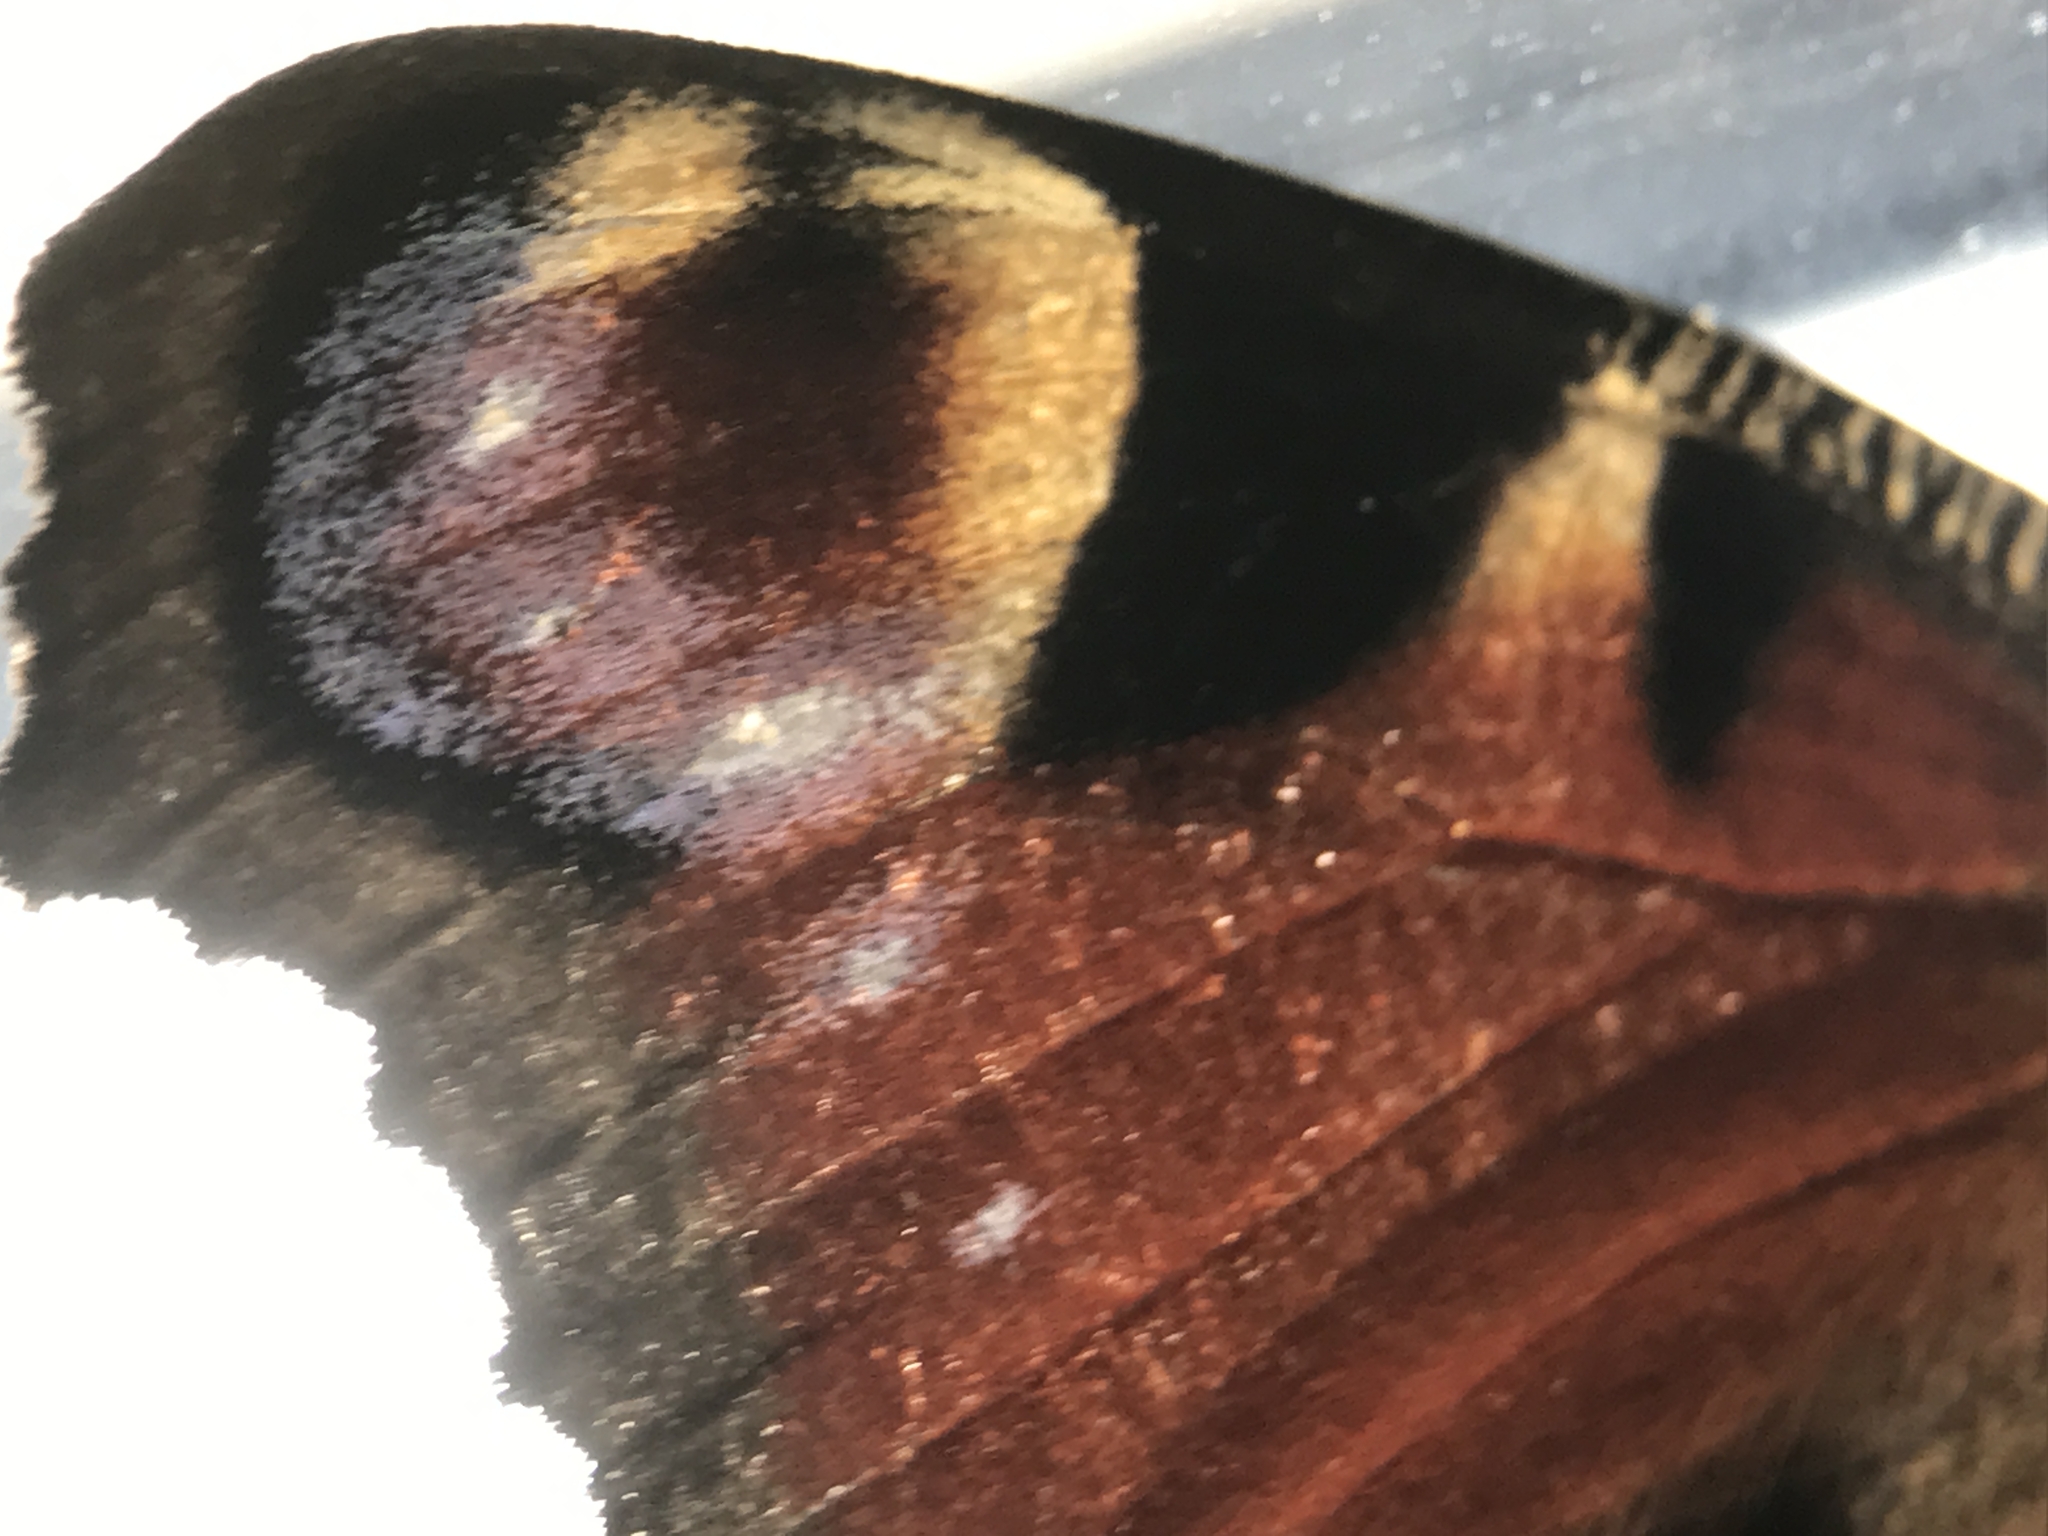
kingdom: Animalia
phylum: Arthropoda
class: Insecta
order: Lepidoptera
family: Nymphalidae
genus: Aglais
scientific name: Aglais io
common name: Peacock
